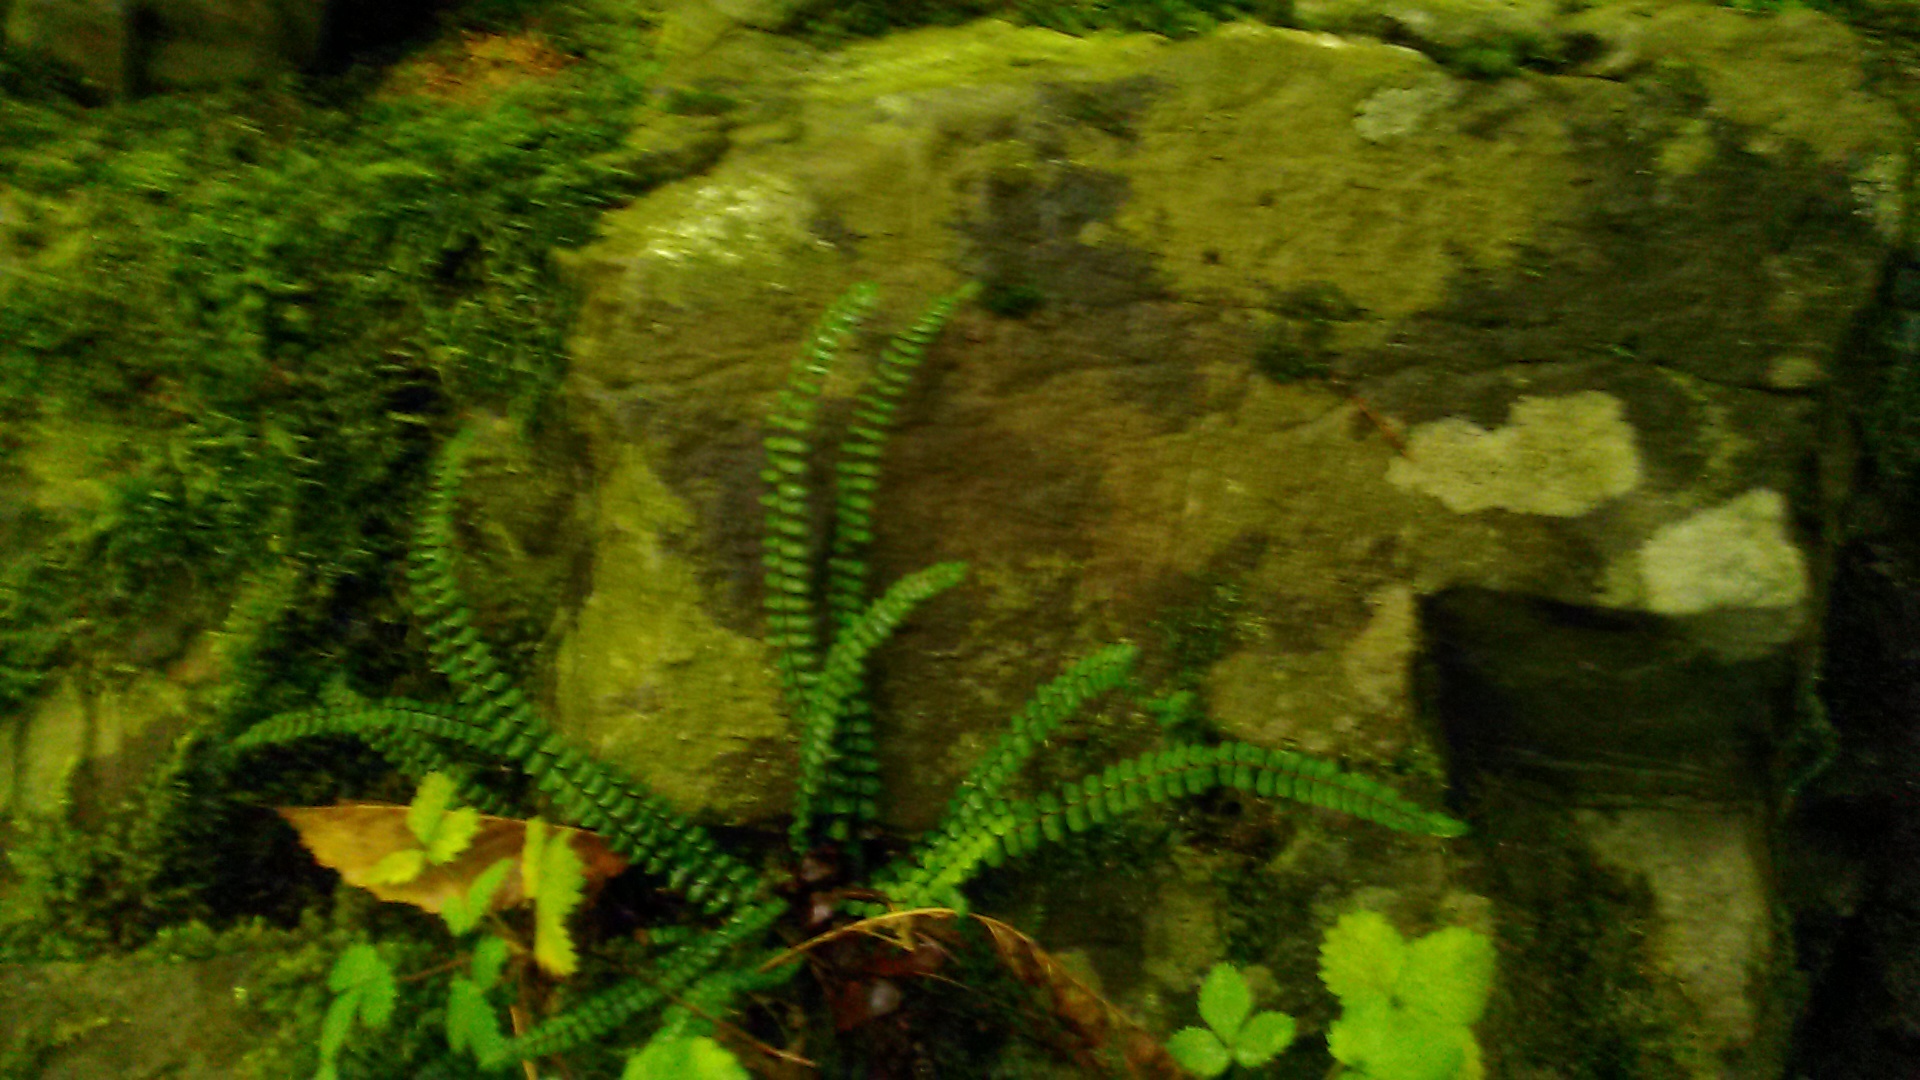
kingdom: Plantae
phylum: Tracheophyta
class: Polypodiopsida
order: Polypodiales
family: Aspleniaceae
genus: Asplenium
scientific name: Asplenium trichomanes
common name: Maidenhair spleenwort
